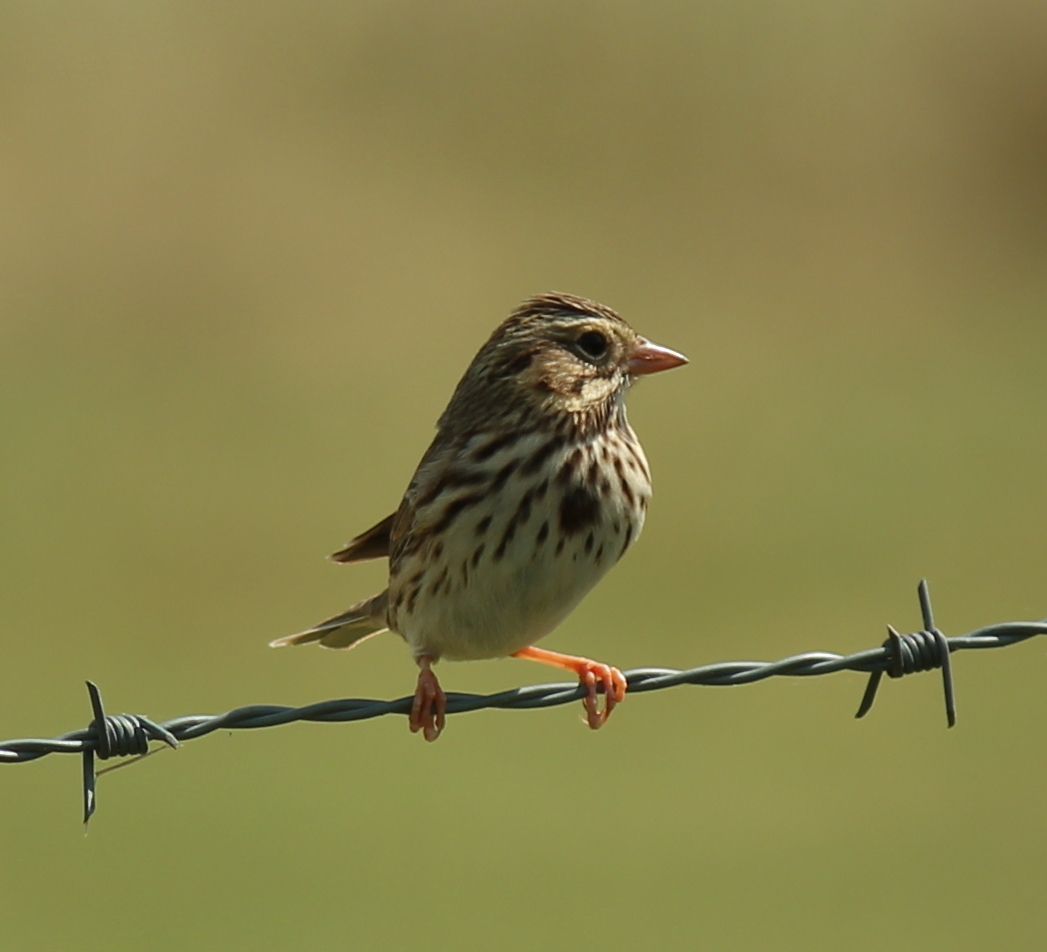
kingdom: Animalia
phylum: Chordata
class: Aves
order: Passeriformes
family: Passerellidae
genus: Passerculus
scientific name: Passerculus sandwichensis
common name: Savannah sparrow
